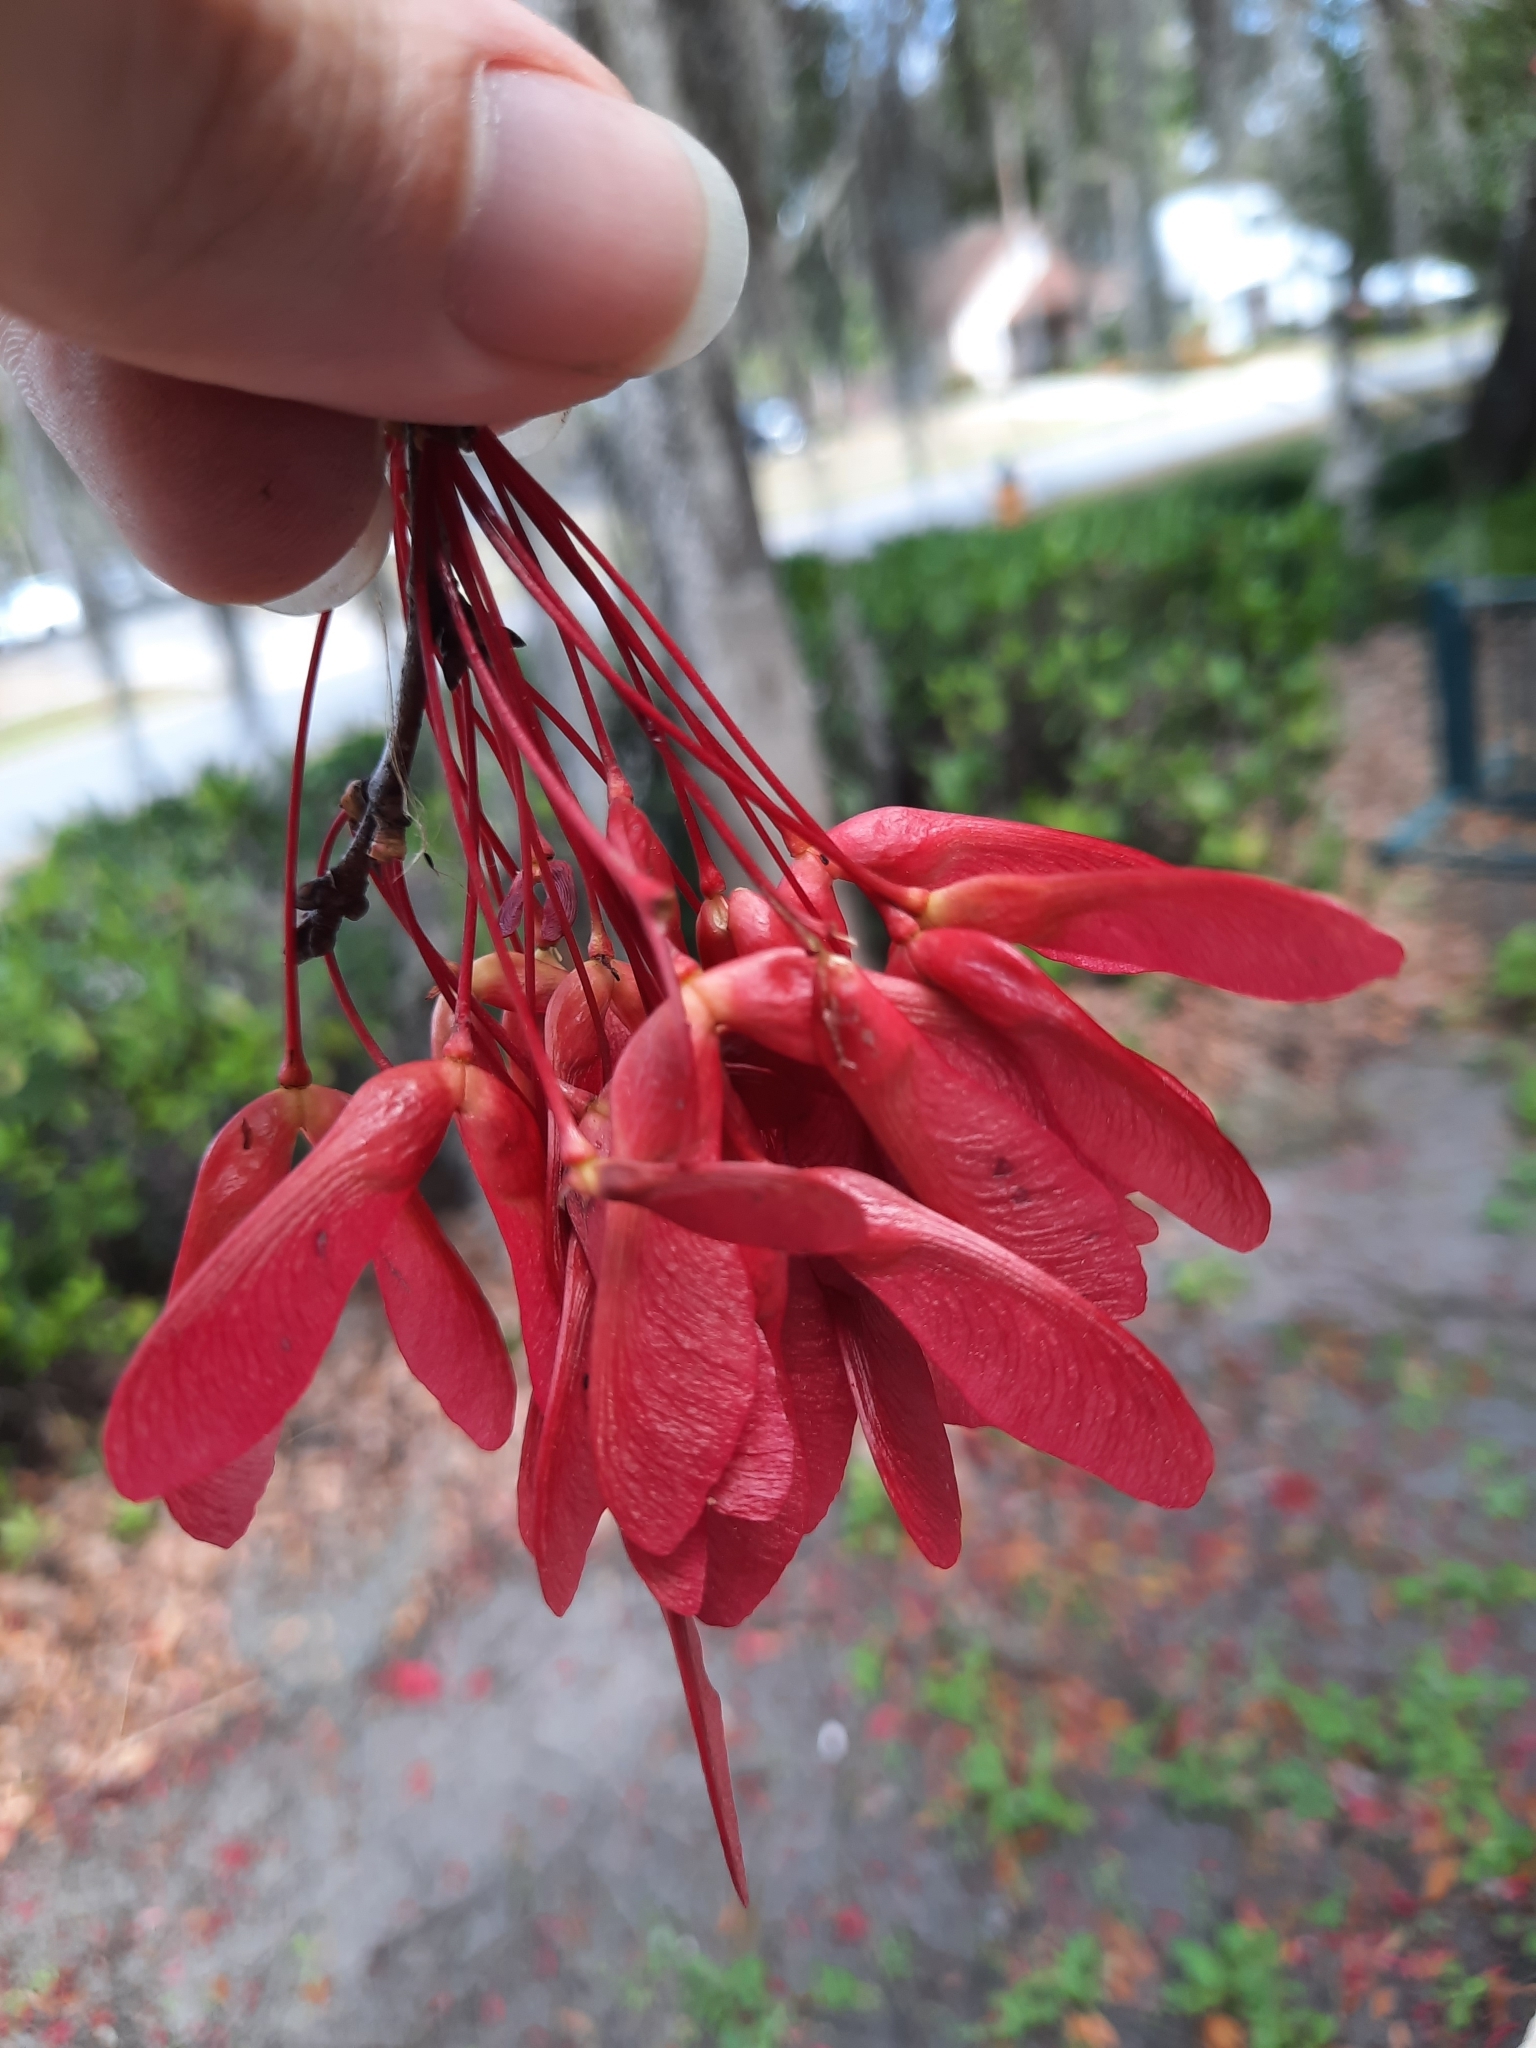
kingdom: Plantae
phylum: Tracheophyta
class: Magnoliopsida
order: Sapindales
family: Sapindaceae
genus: Acer
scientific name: Acer rubrum
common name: Red maple
